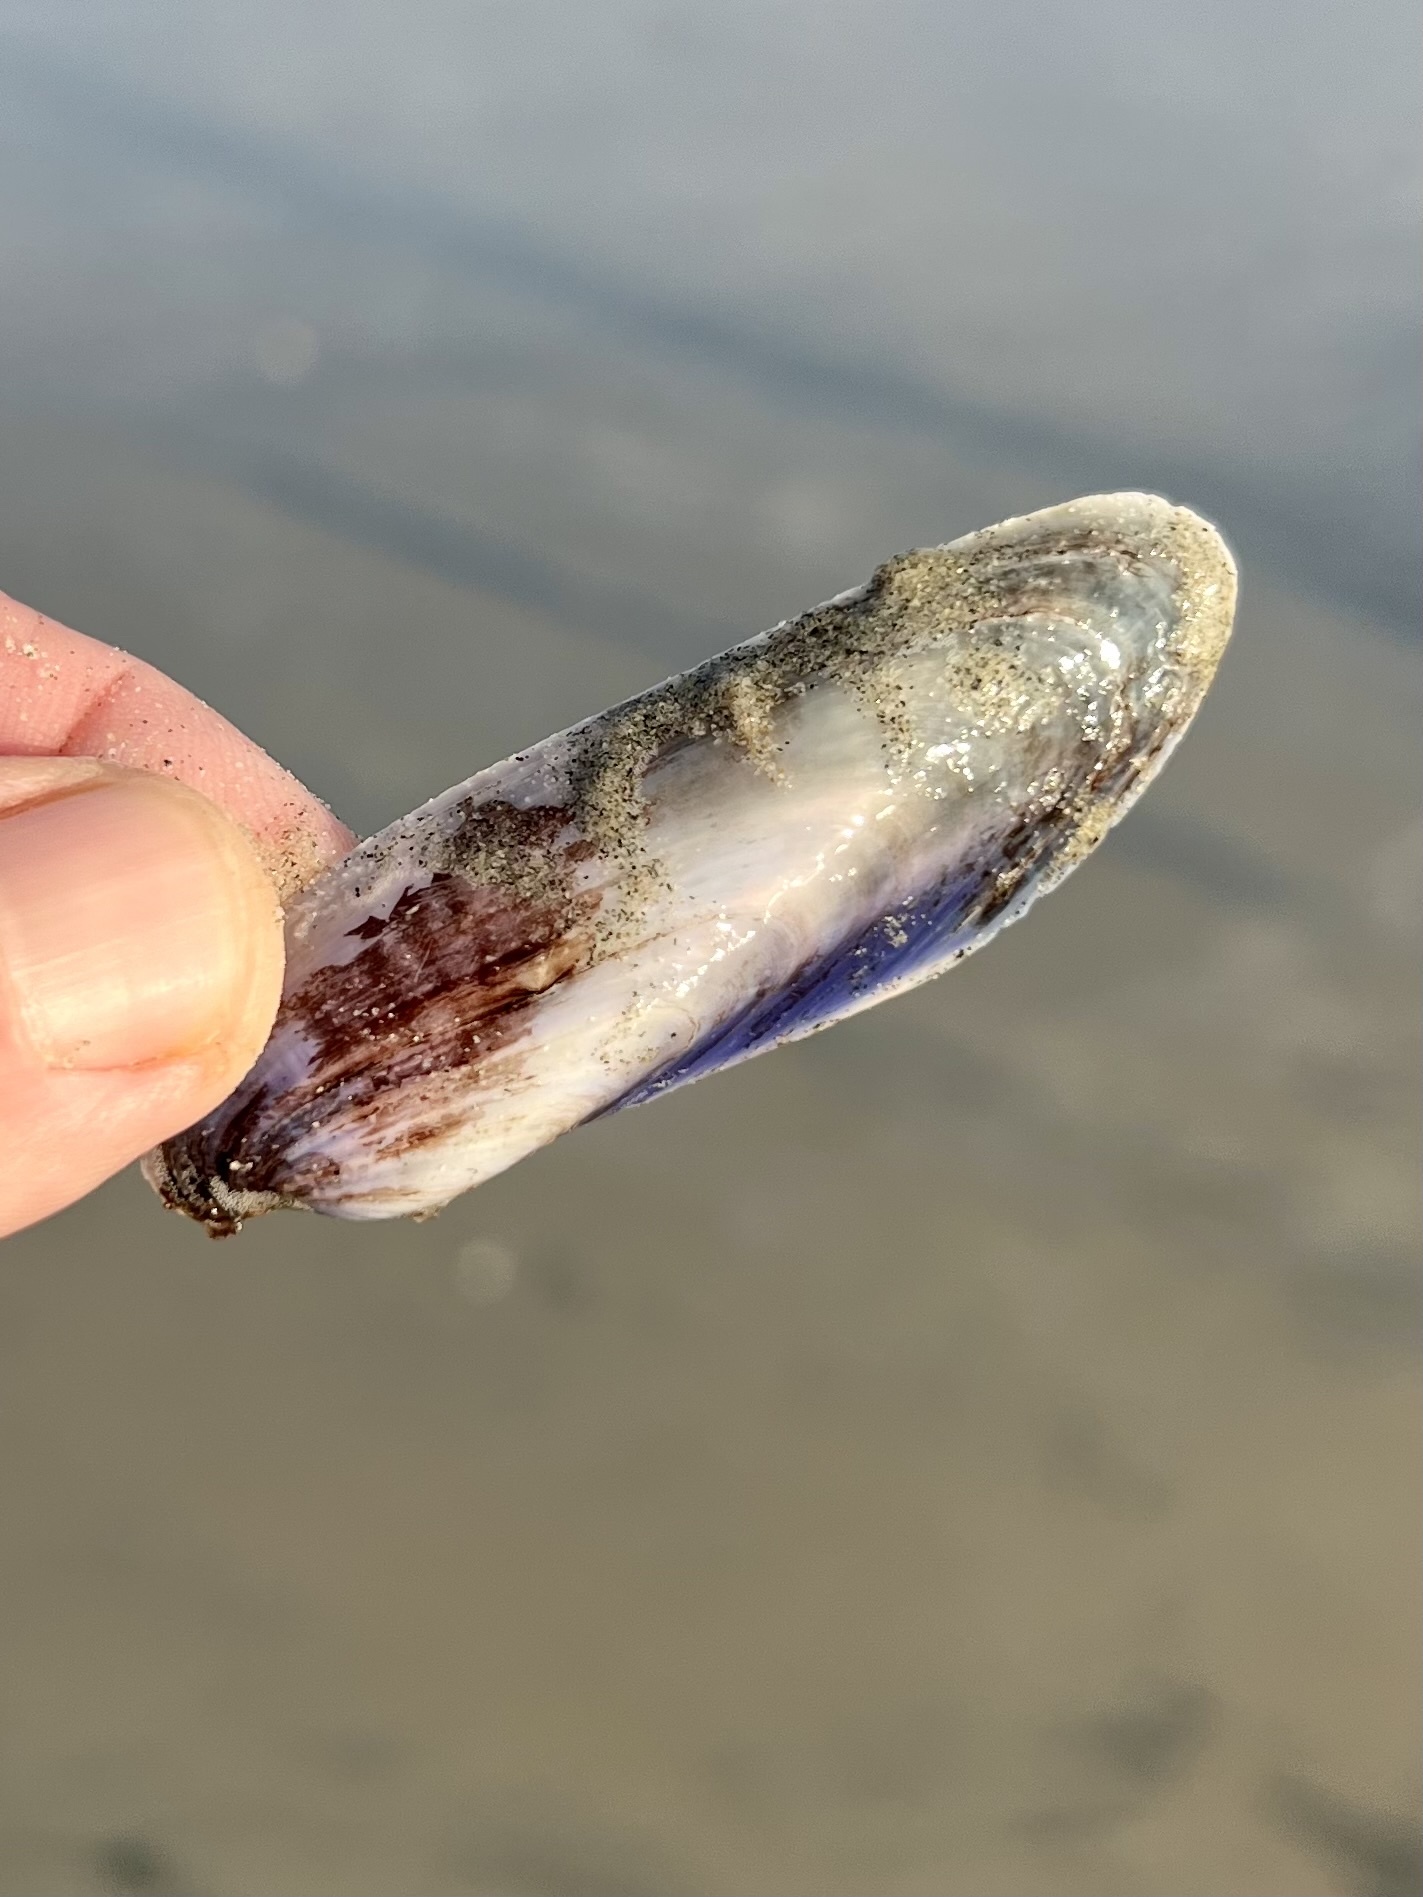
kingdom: Animalia
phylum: Mollusca
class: Bivalvia
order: Mytilida
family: Mytilidae
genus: Modiolus
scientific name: Modiolus rectus
